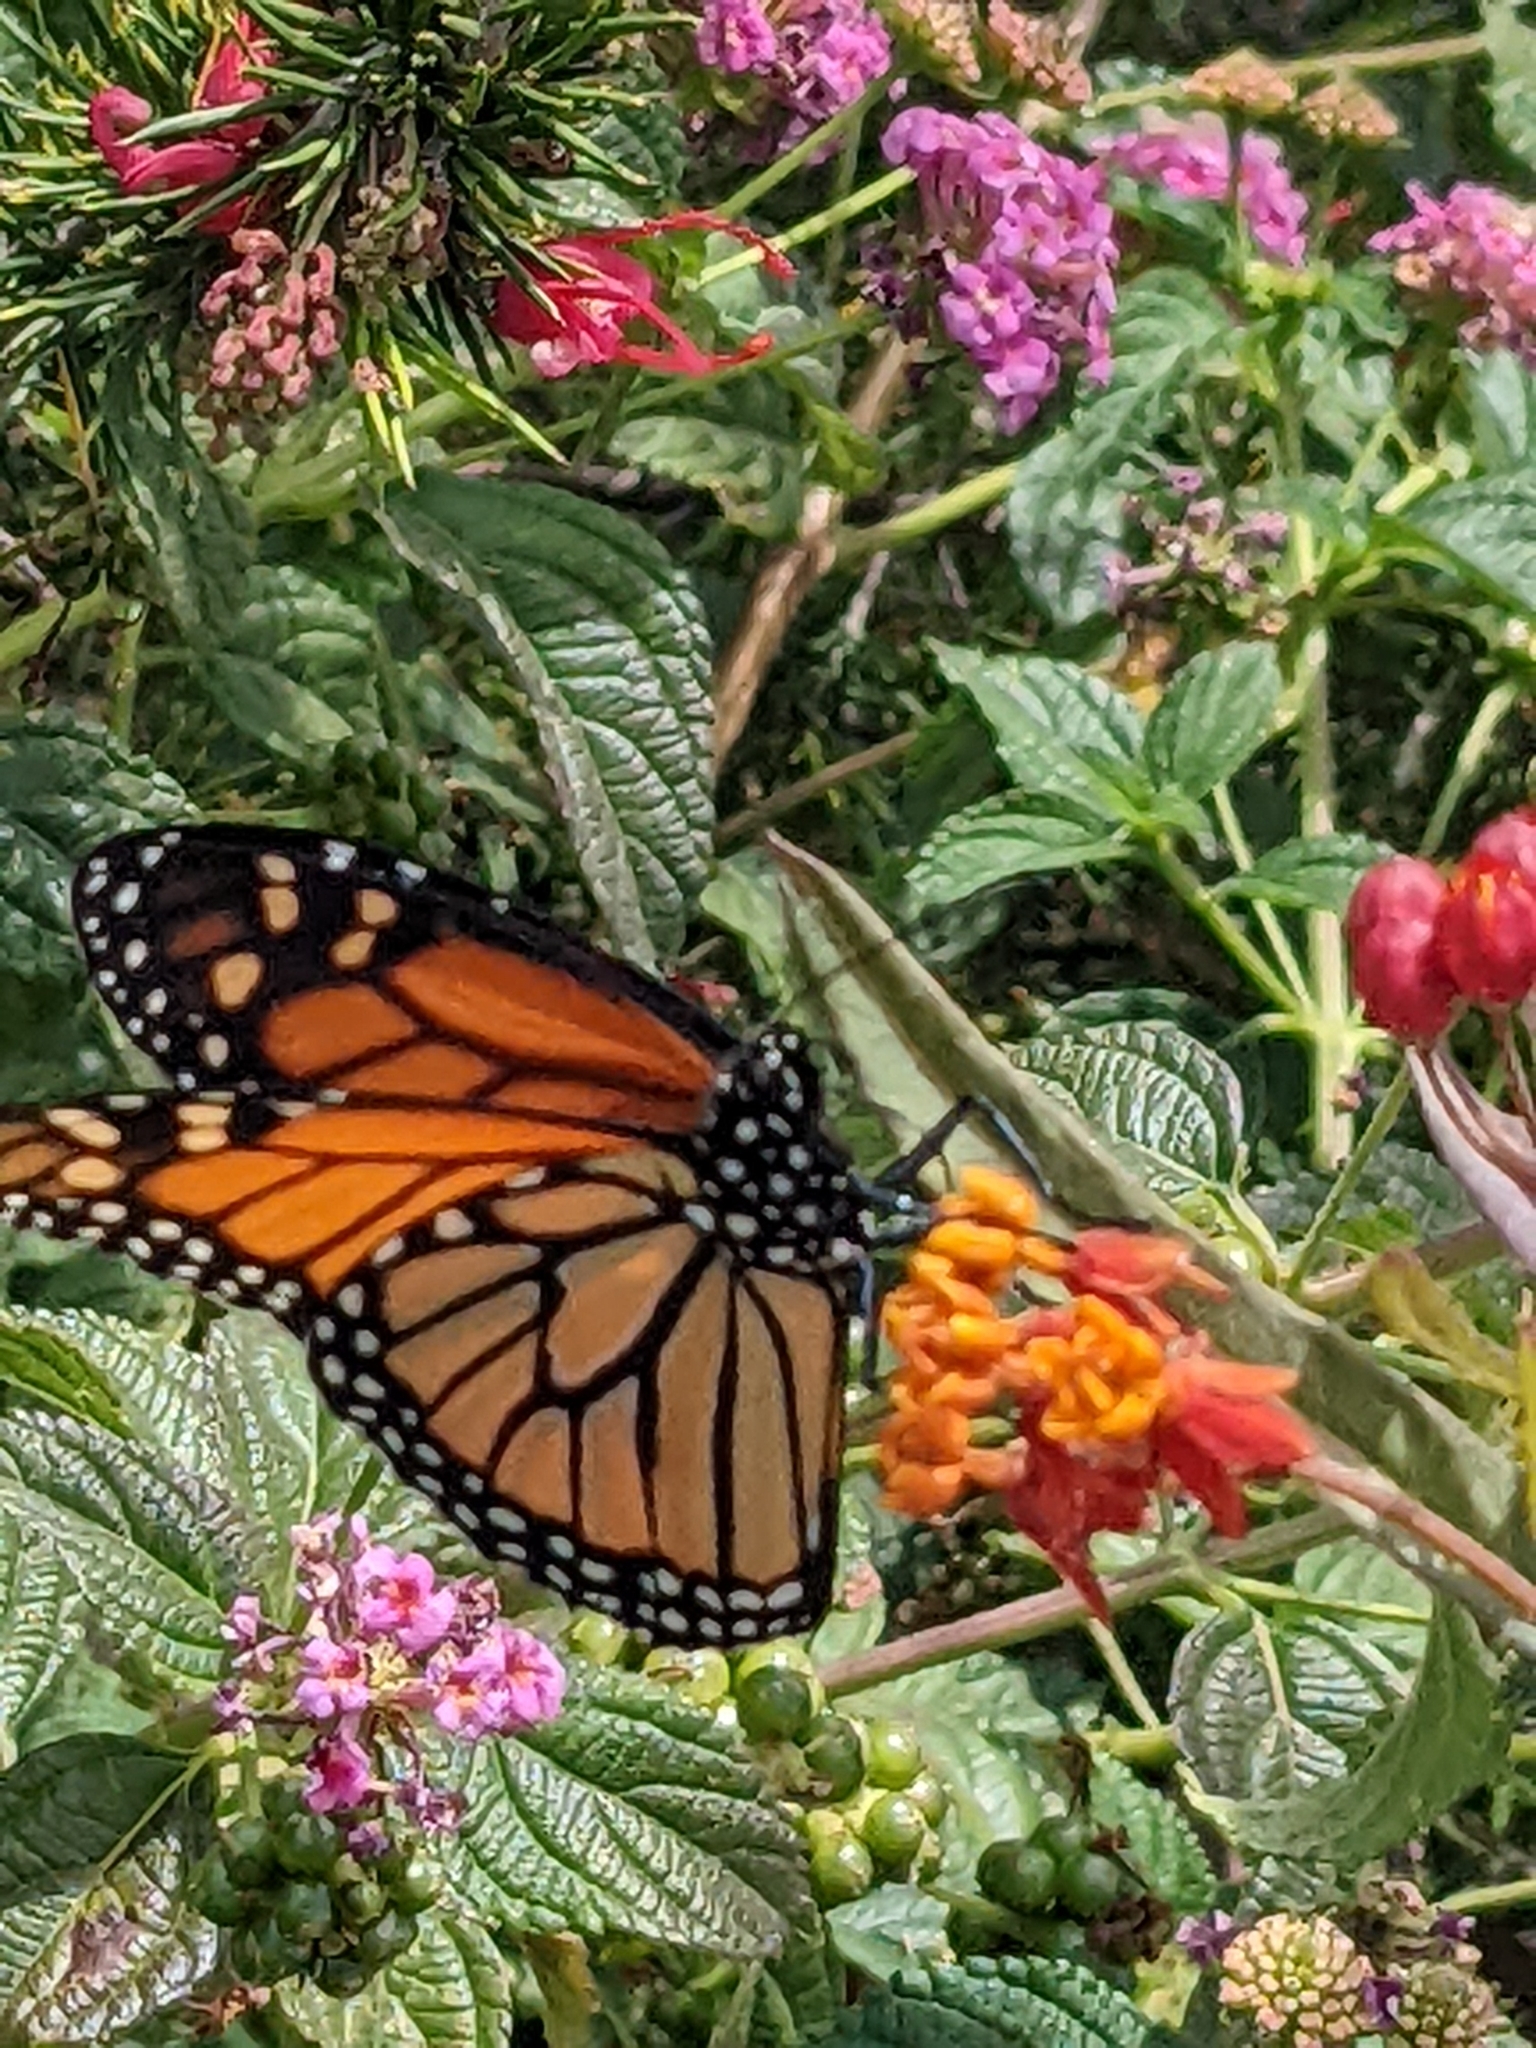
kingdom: Animalia
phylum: Arthropoda
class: Insecta
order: Lepidoptera
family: Nymphalidae
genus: Danaus
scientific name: Danaus plexippus
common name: Monarch
